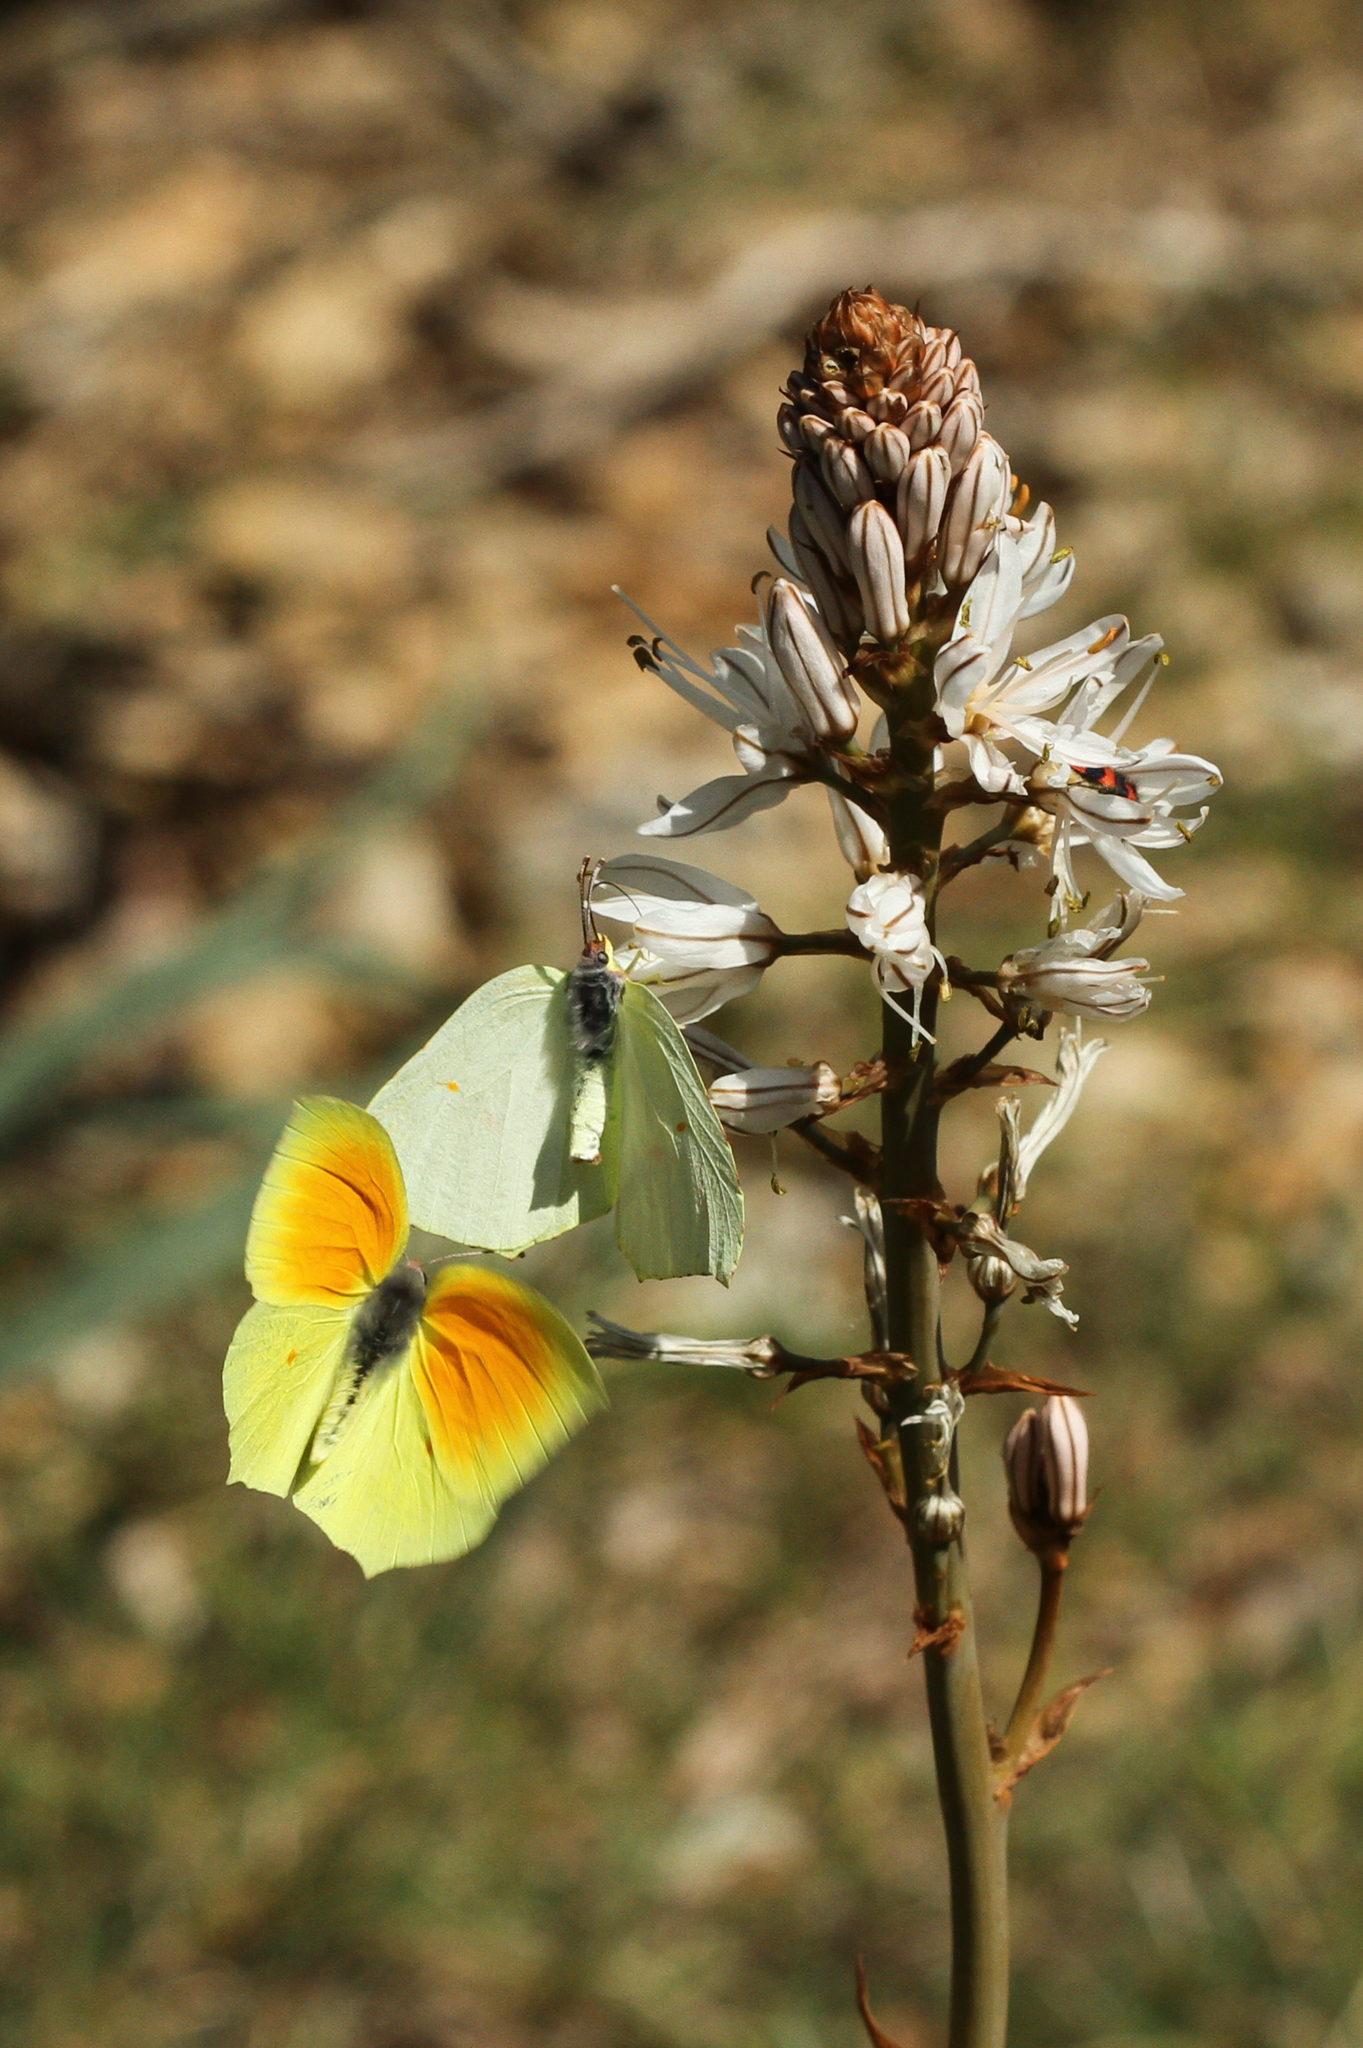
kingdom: Animalia
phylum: Arthropoda
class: Insecta
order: Lepidoptera
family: Pieridae
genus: Gonepteryx
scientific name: Gonepteryx cleopatra
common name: Cleopatra
